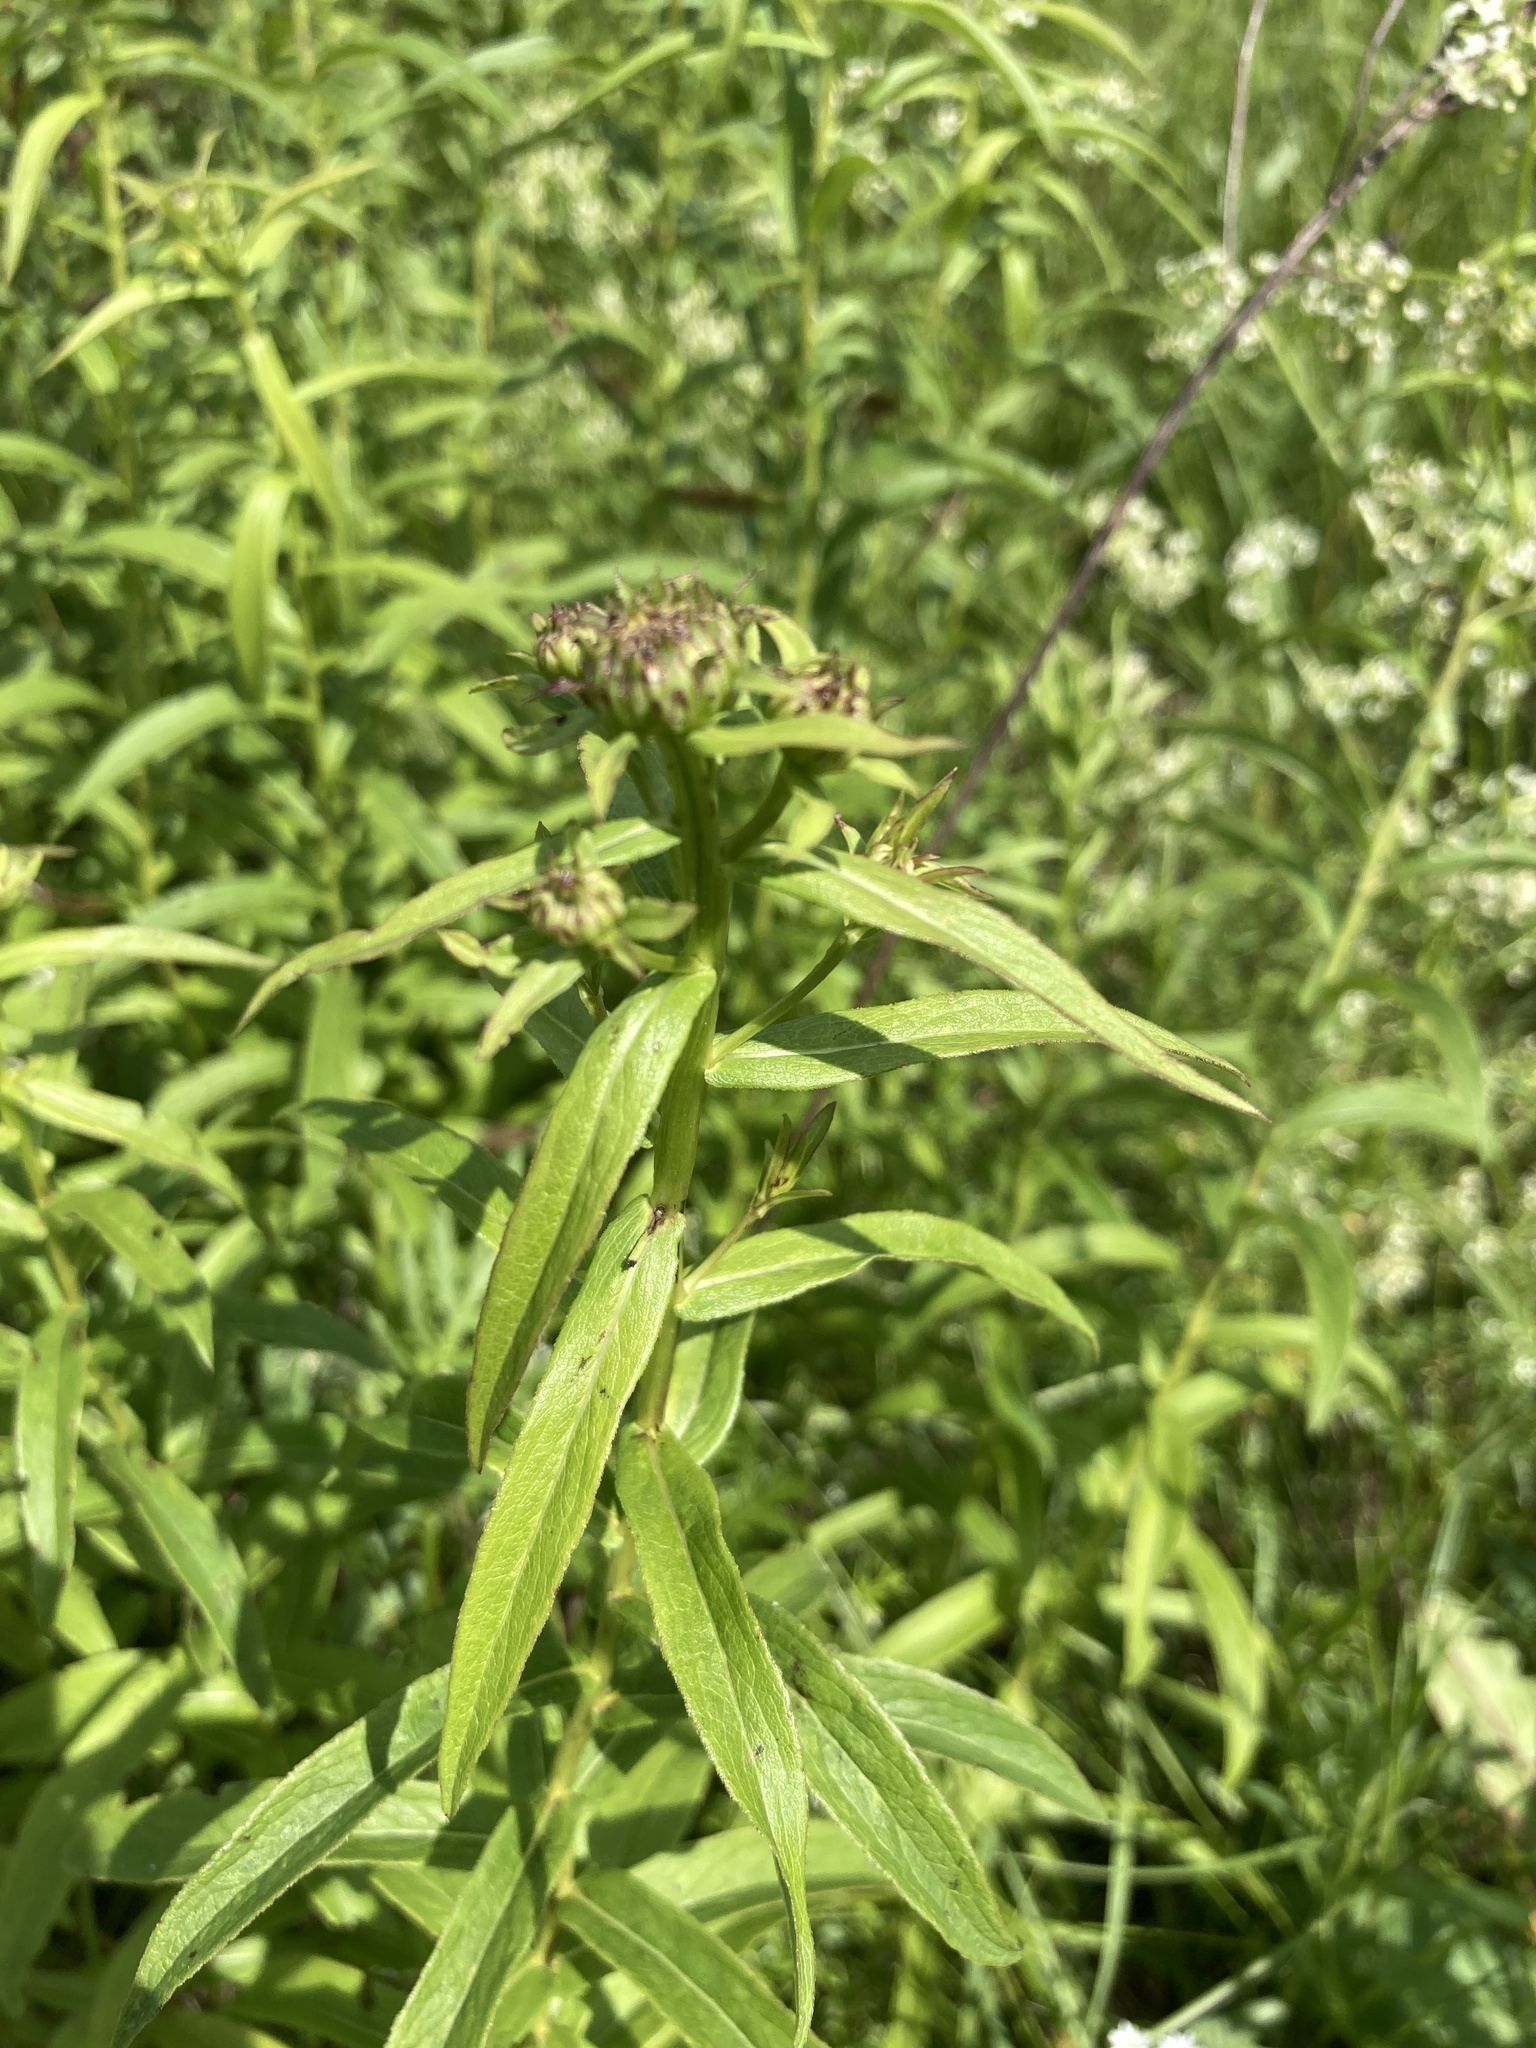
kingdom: Plantae
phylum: Tracheophyta
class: Magnoliopsida
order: Asterales
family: Asteraceae
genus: Pentanema
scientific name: Pentanema salicinum
